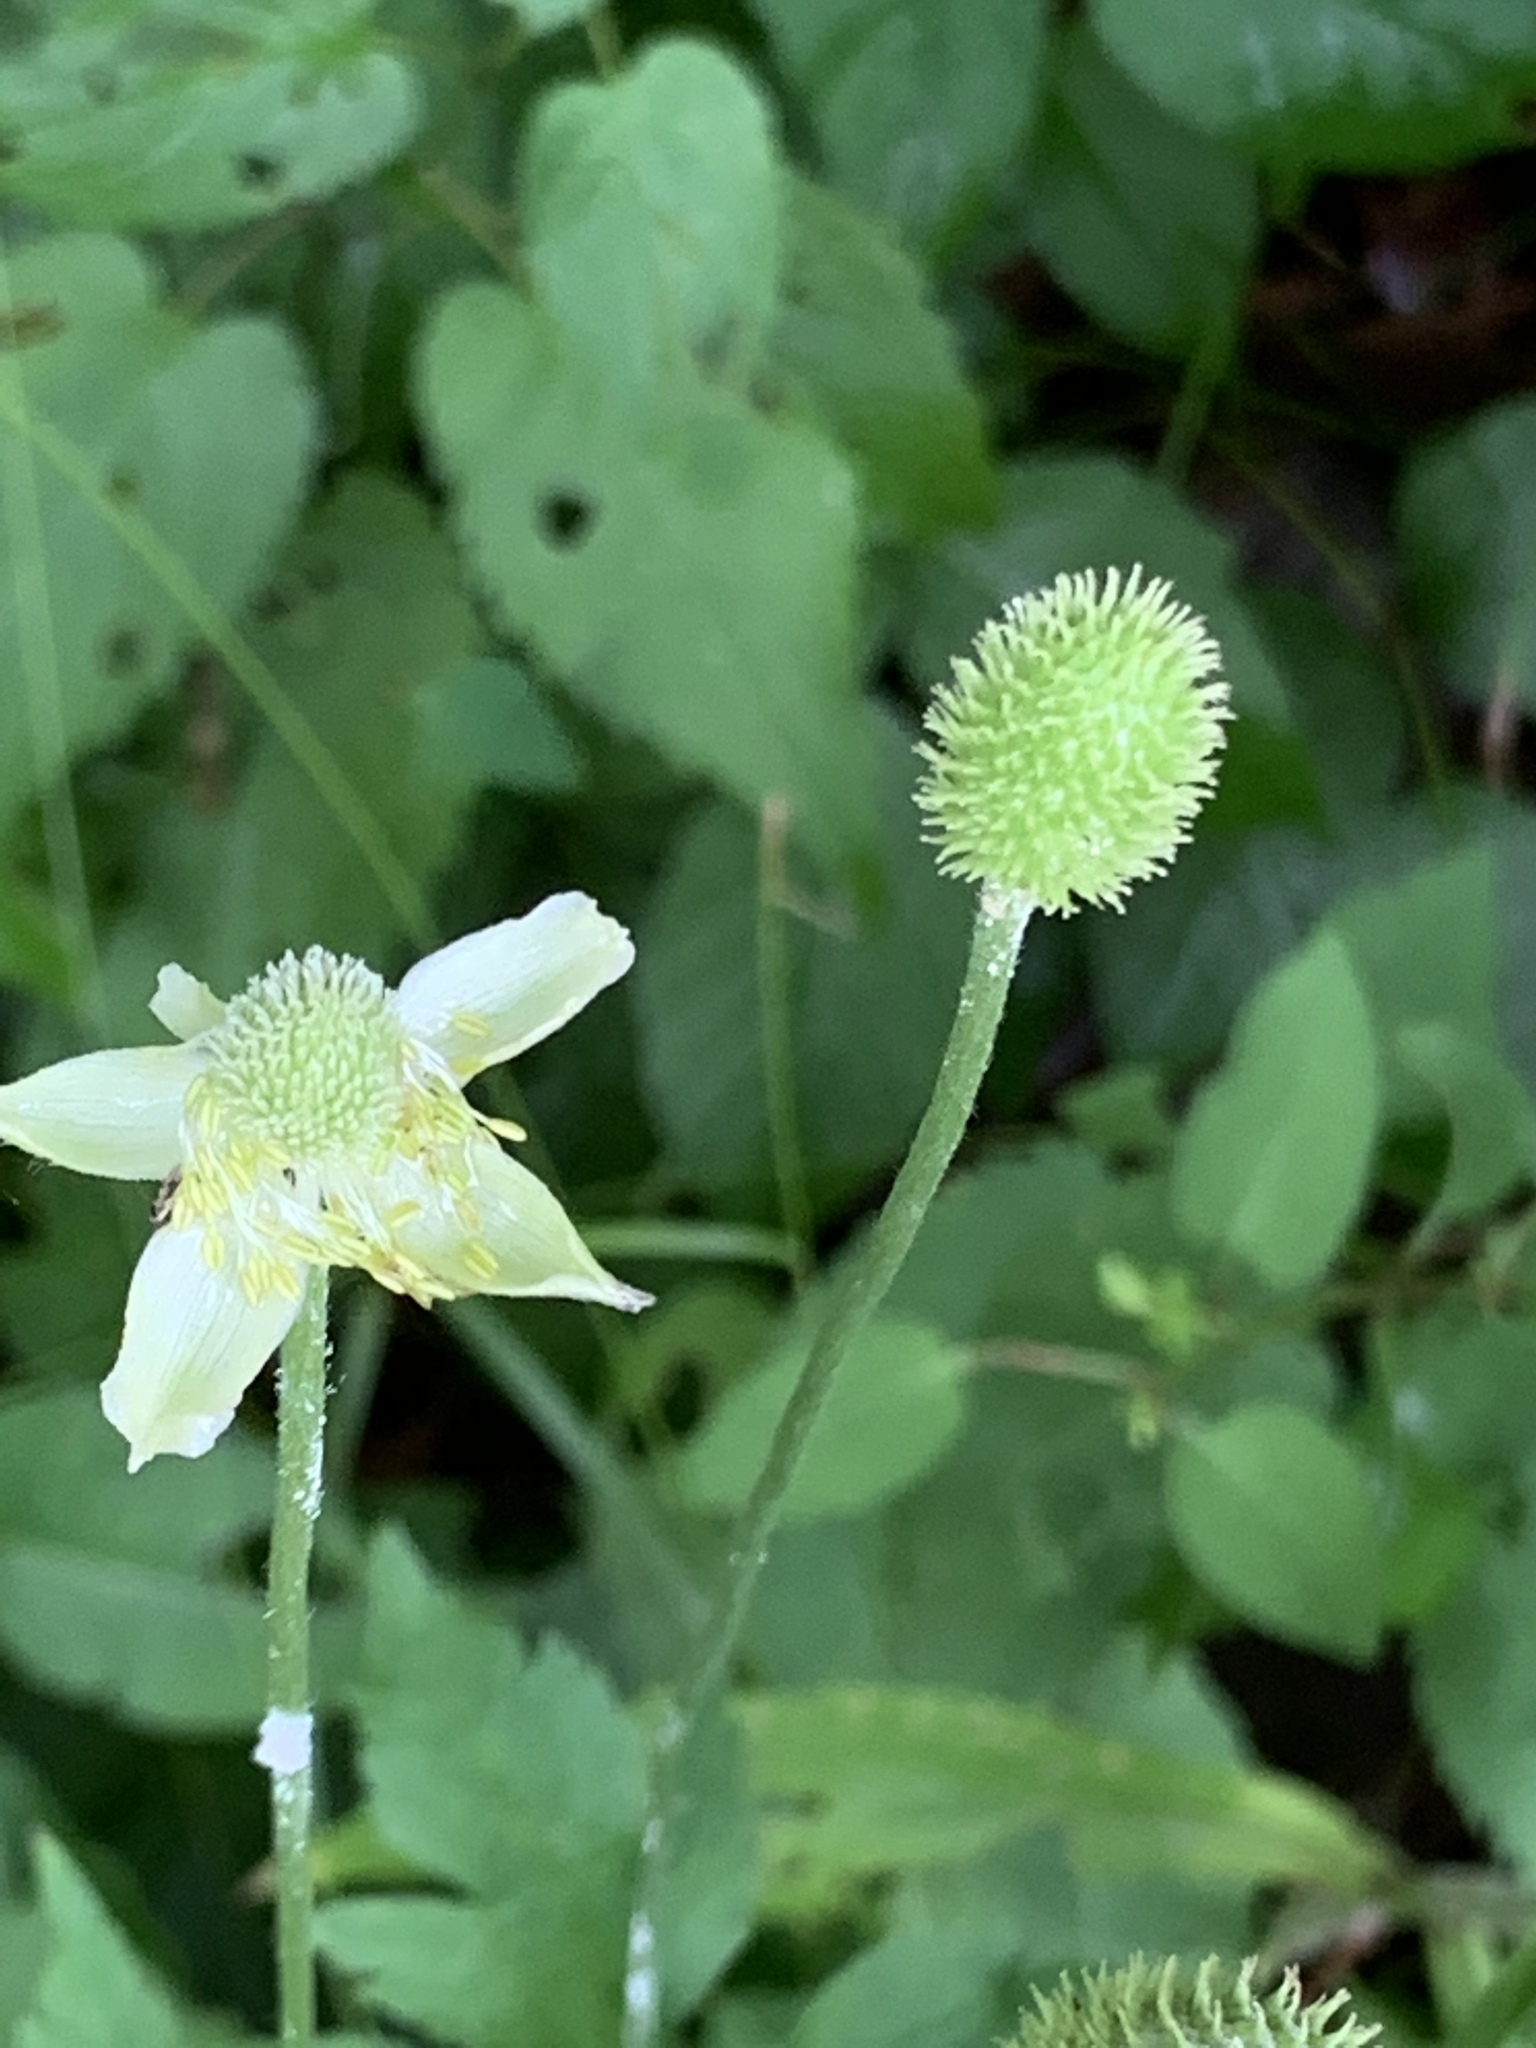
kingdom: Plantae
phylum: Tracheophyta
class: Magnoliopsida
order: Ranunculales
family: Ranunculaceae
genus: Anemone
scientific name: Anemone virginiana
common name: Tall anemone
